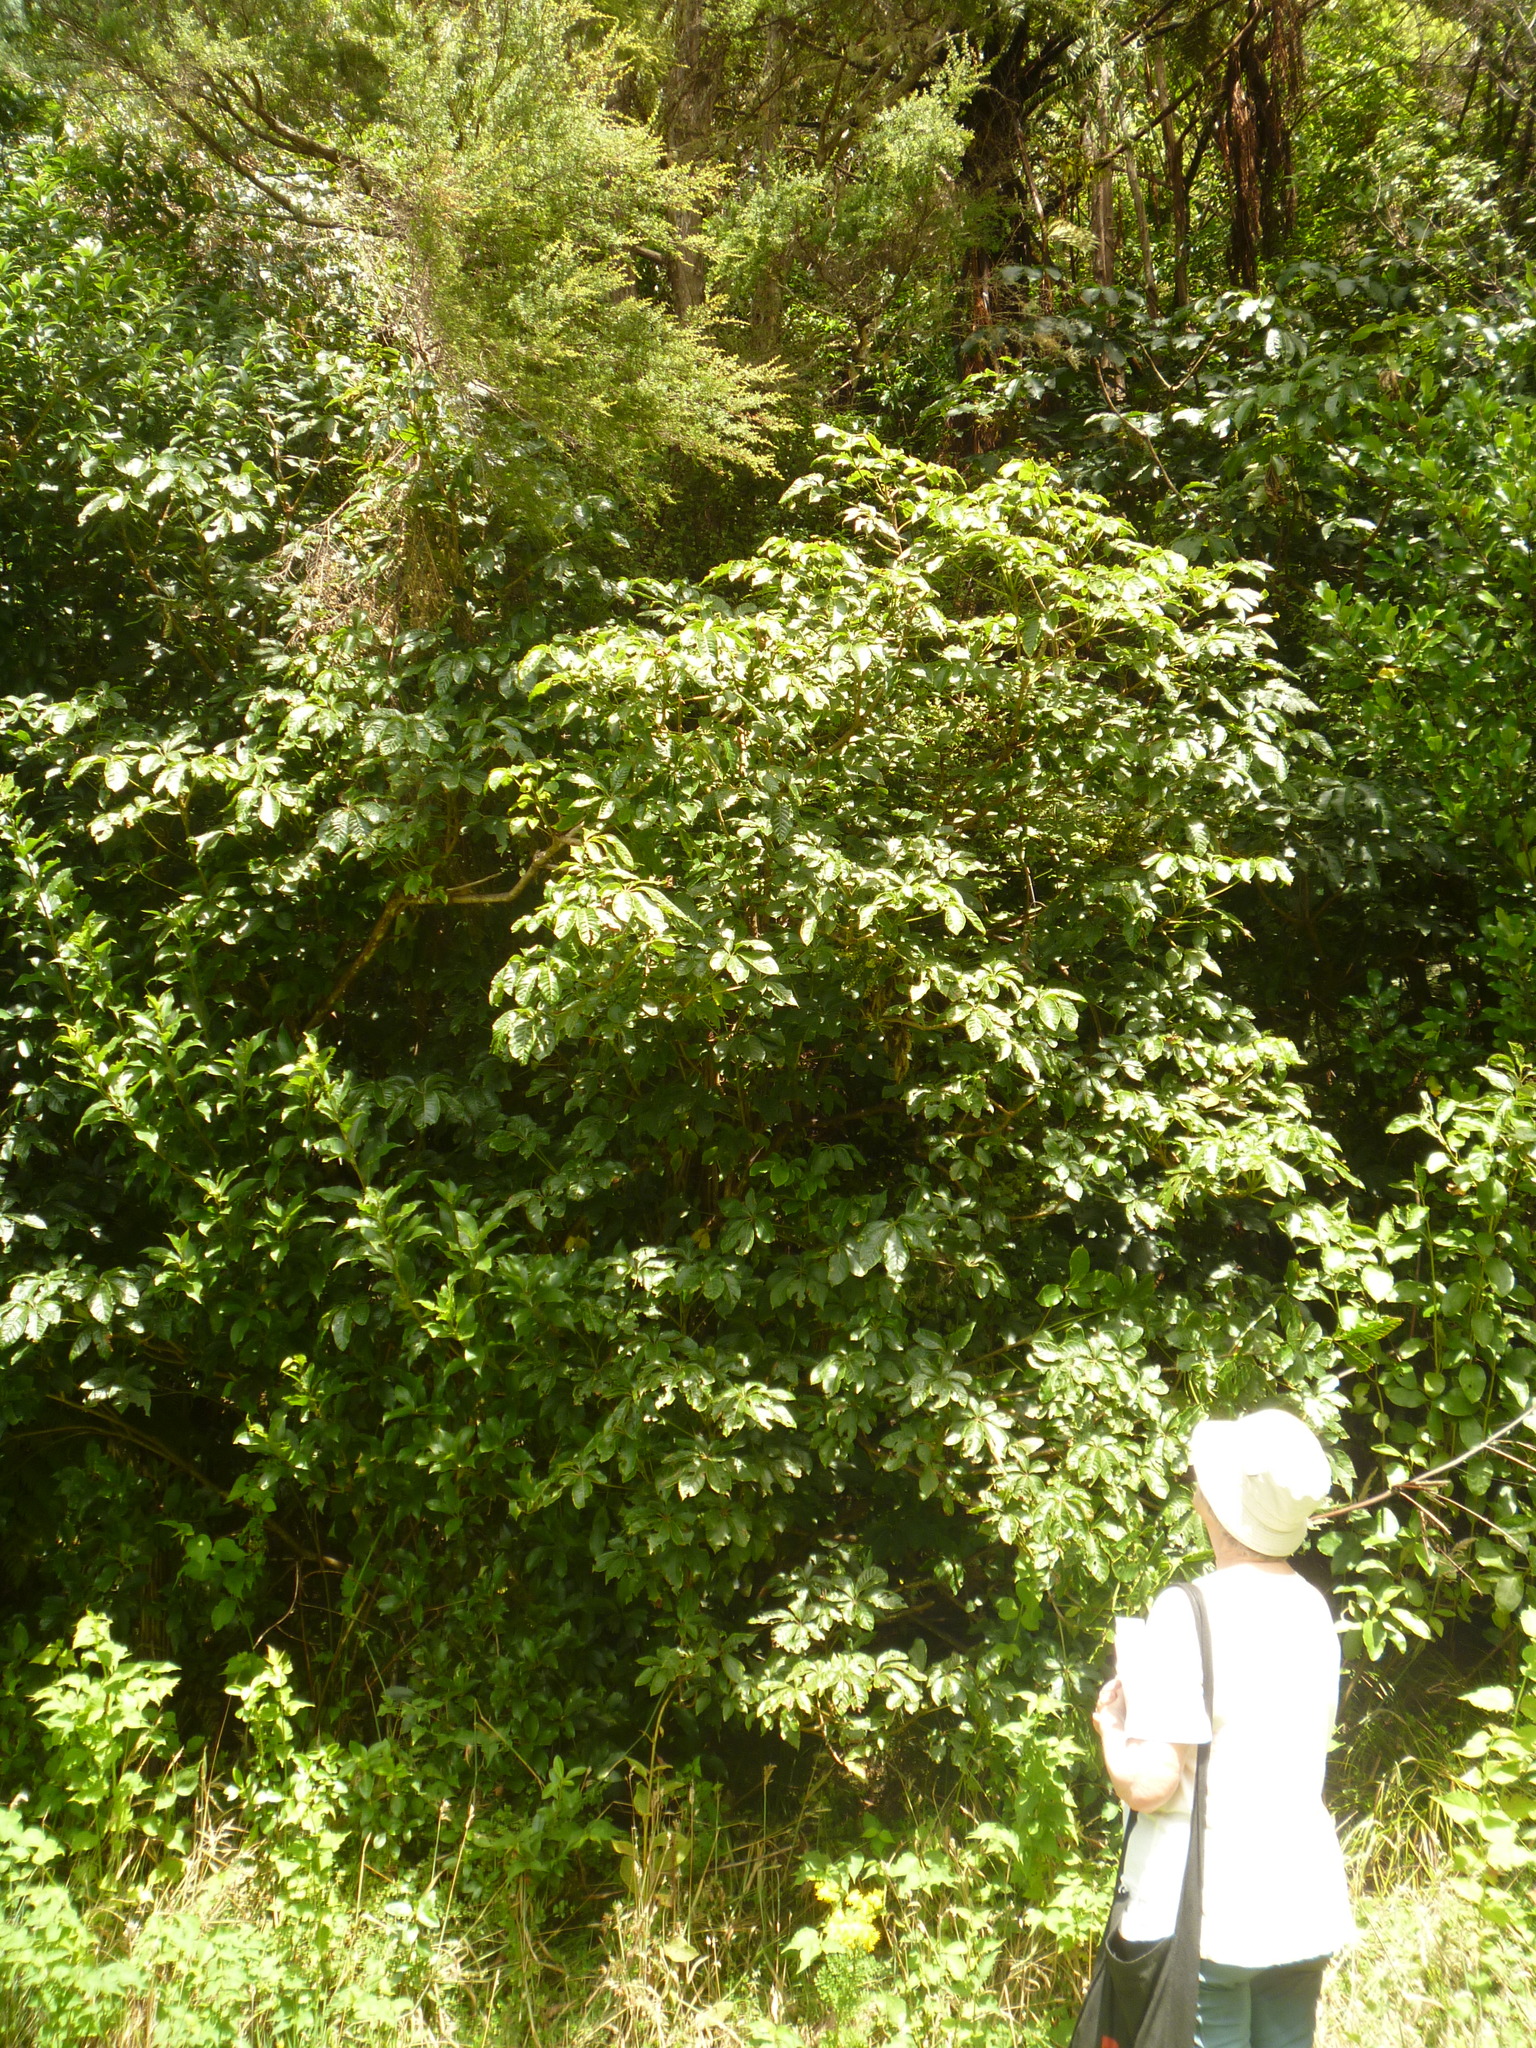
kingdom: Plantae
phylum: Tracheophyta
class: Magnoliopsida
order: Apiales
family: Araliaceae
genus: Schefflera
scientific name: Schefflera digitata
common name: Pate
